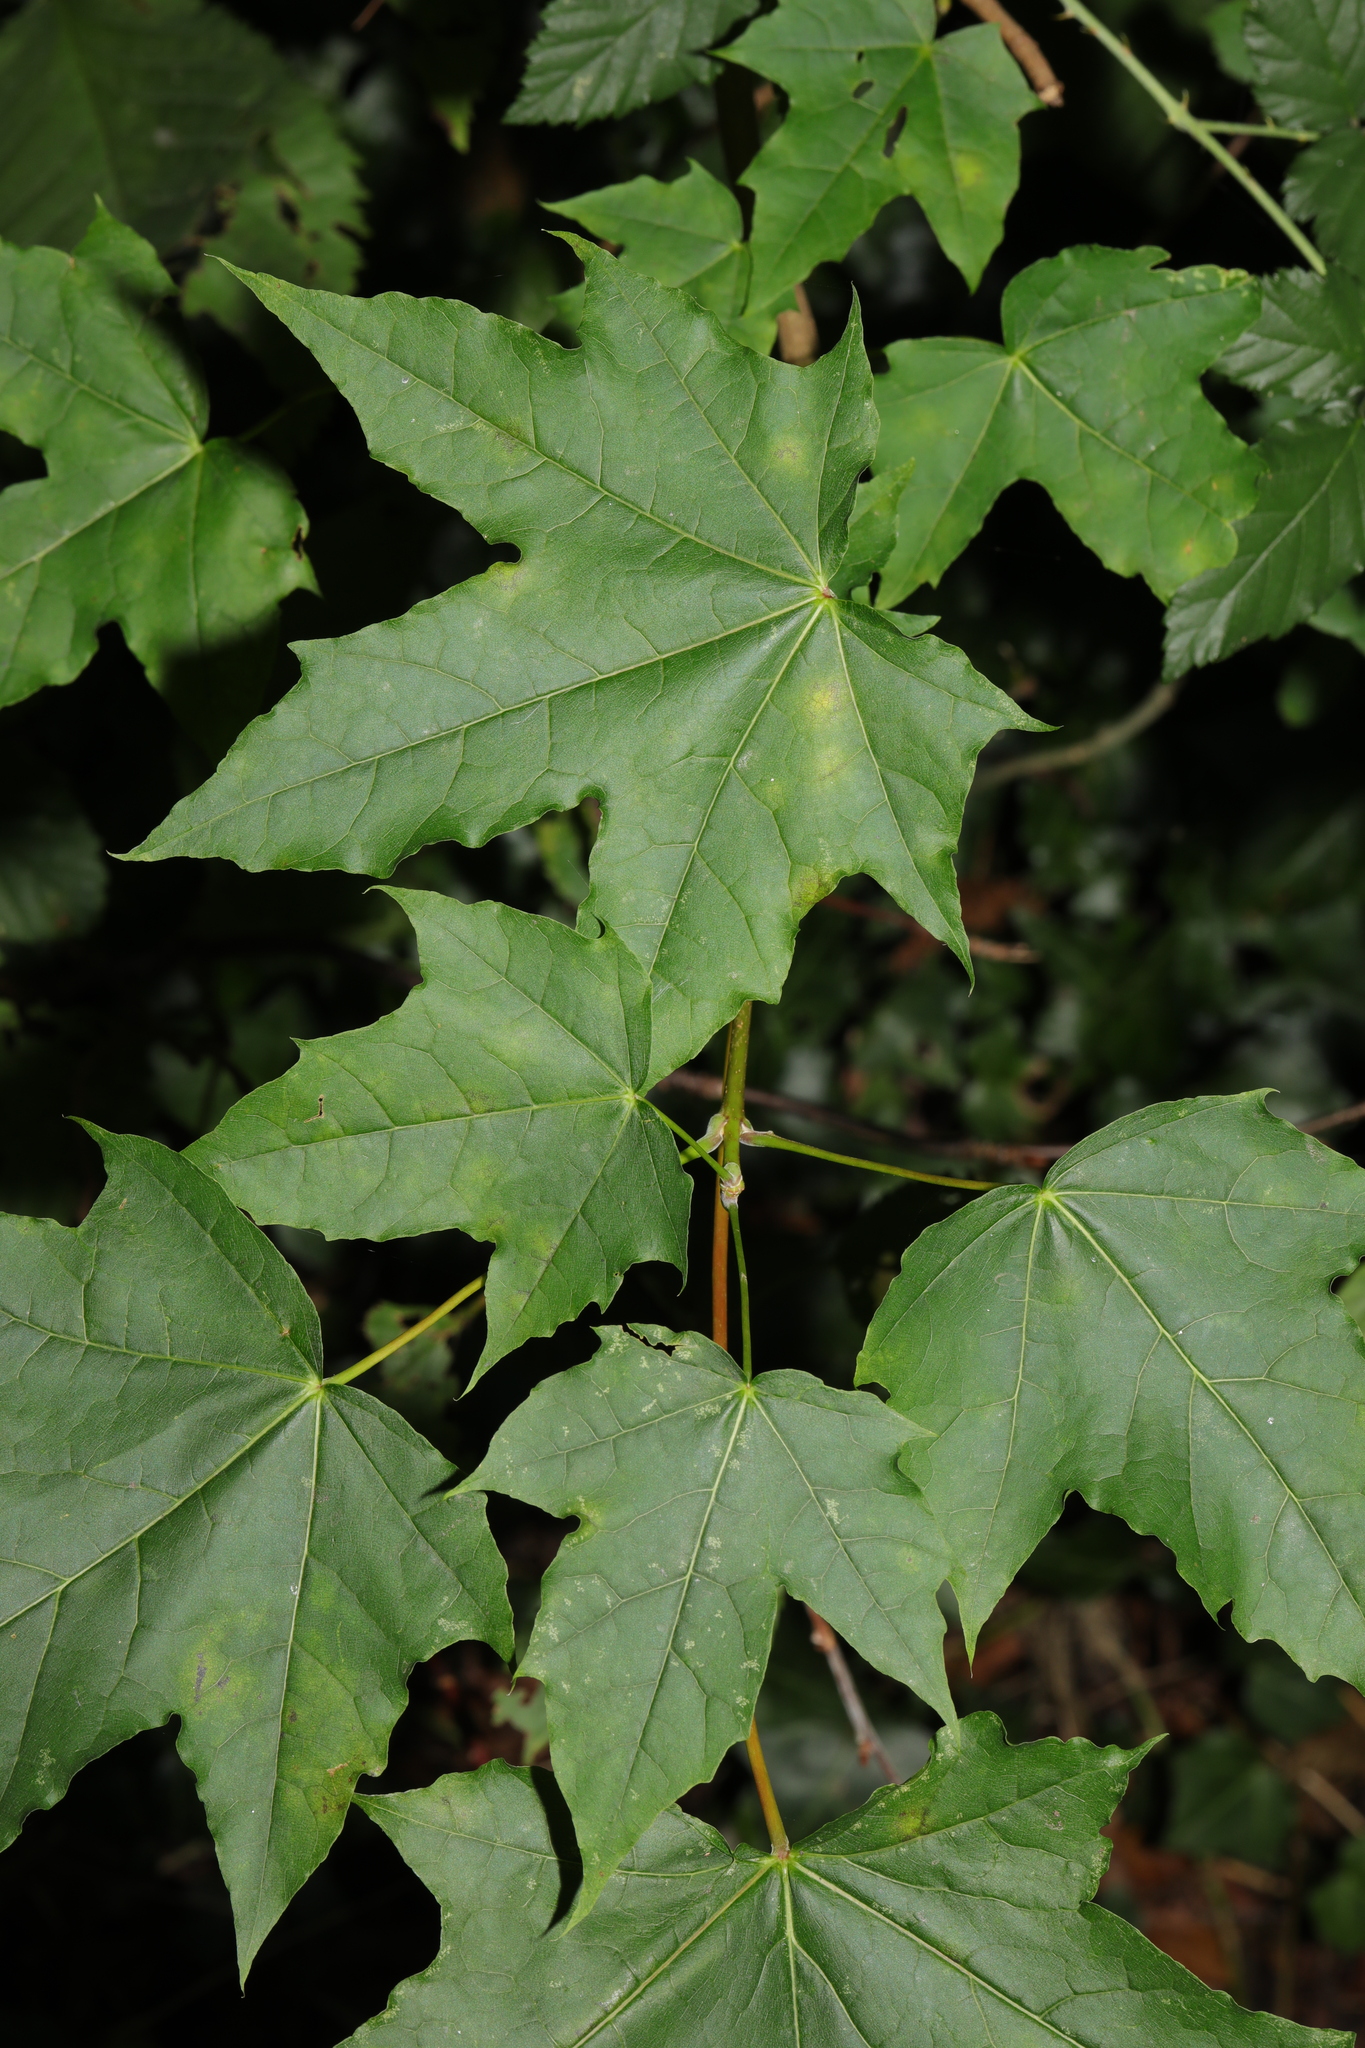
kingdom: Plantae
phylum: Tracheophyta
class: Magnoliopsida
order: Sapindales
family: Sapindaceae
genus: Acer
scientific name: Acer platanoides
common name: Norway maple
